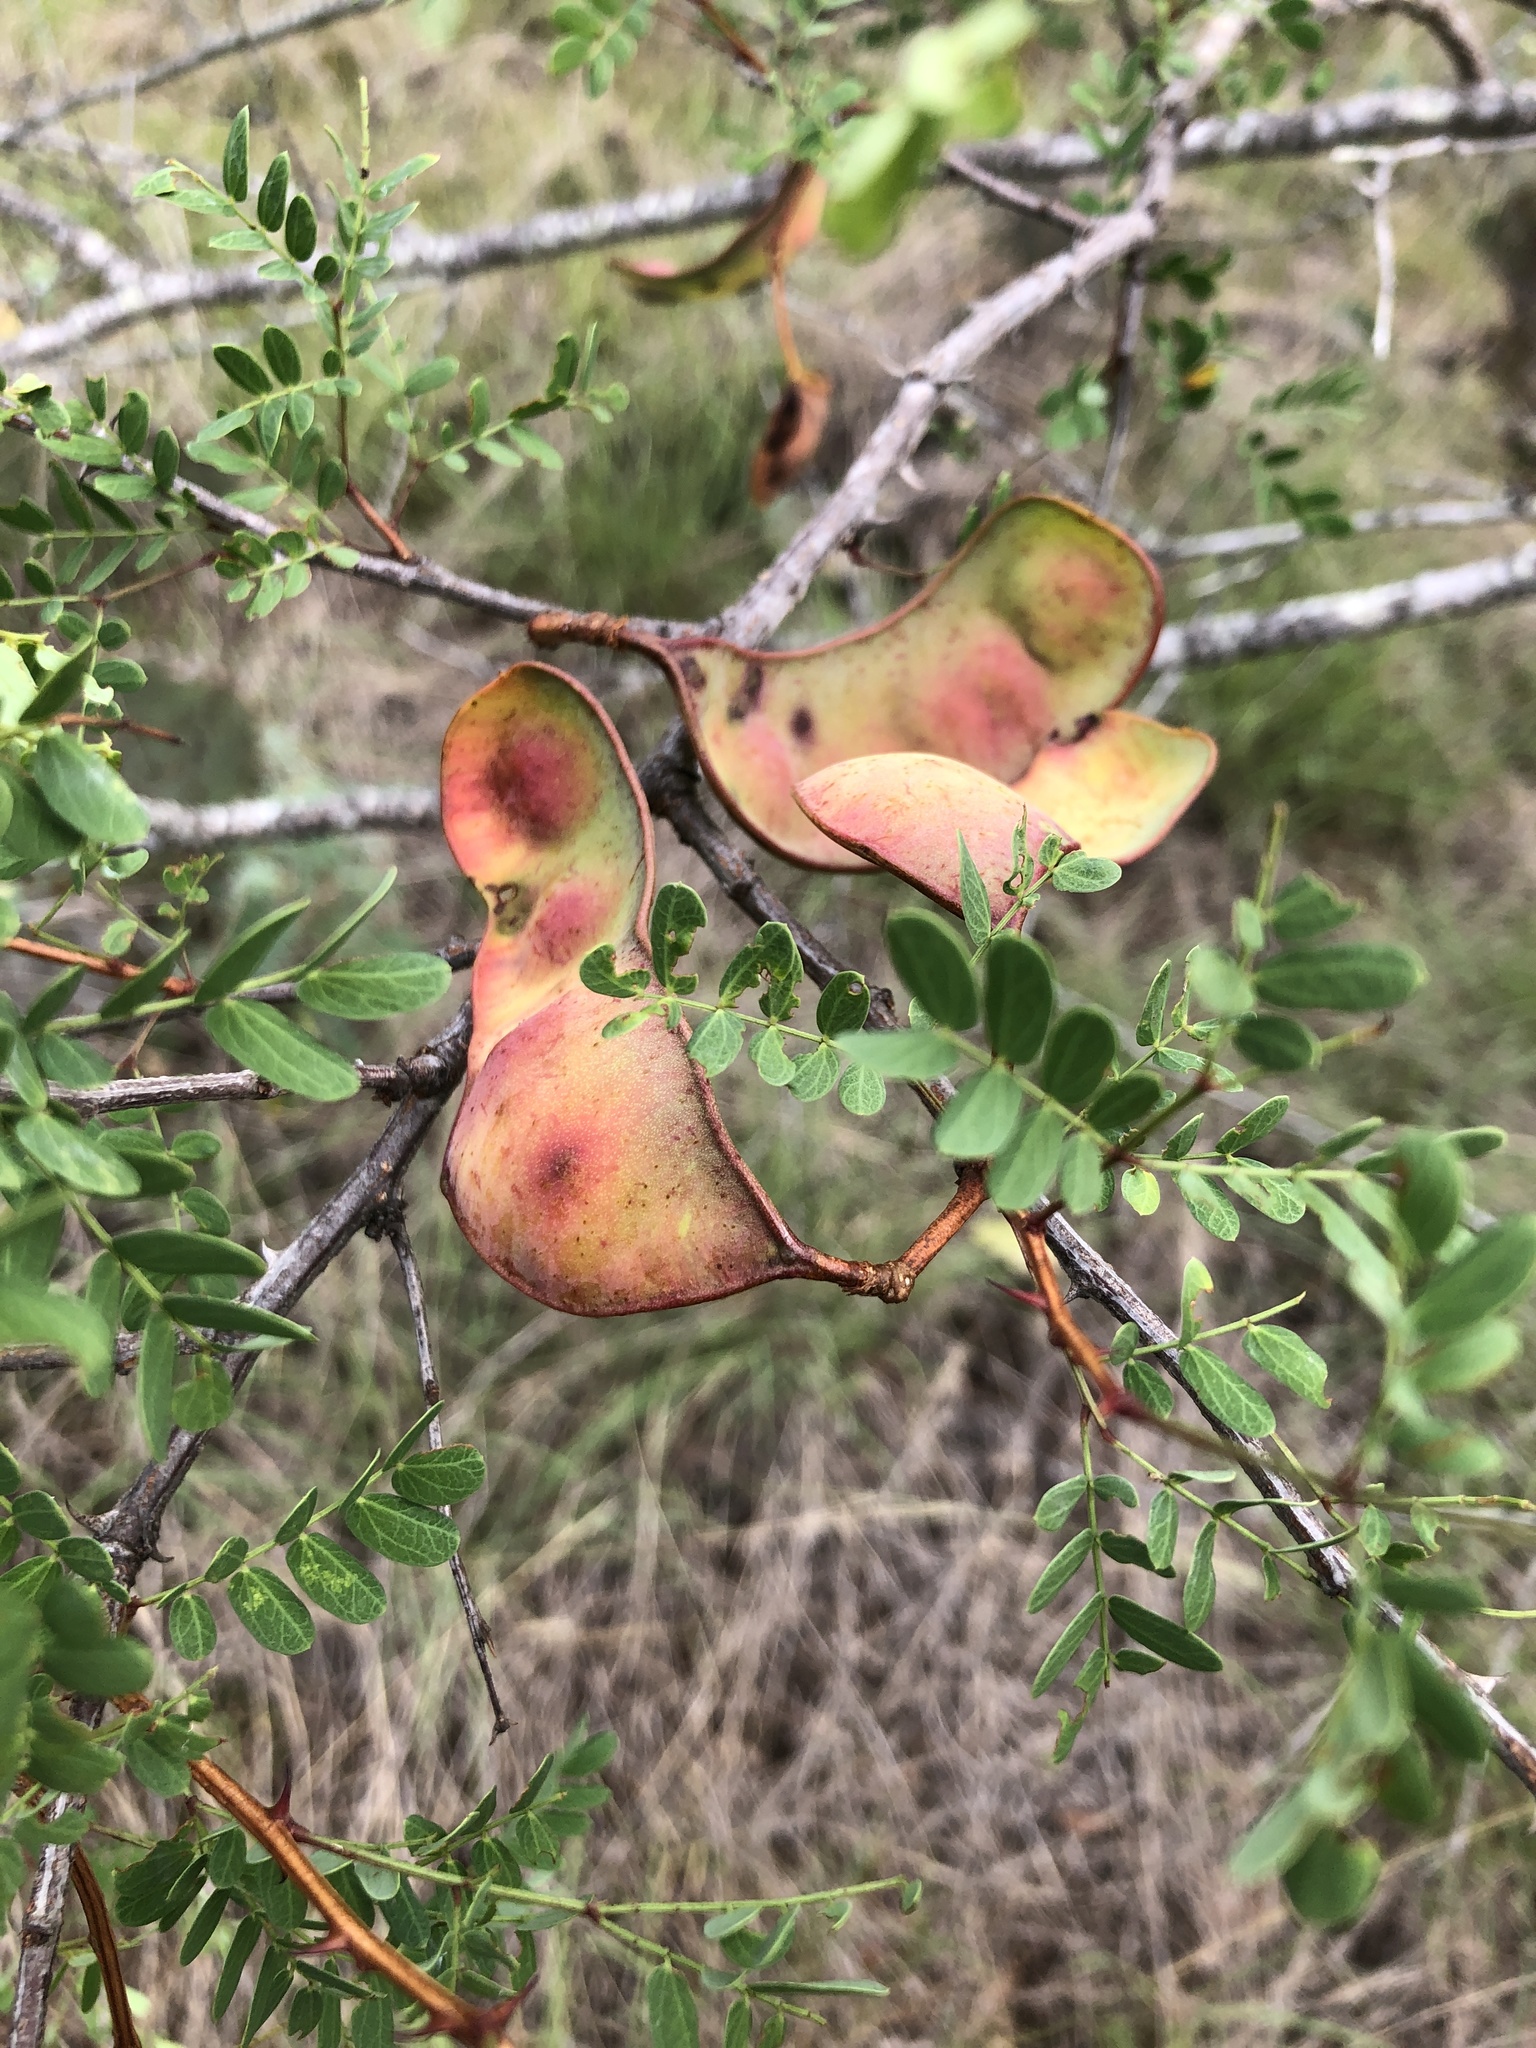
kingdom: Plantae
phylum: Tracheophyta
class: Magnoliopsida
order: Fabales
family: Fabaceae
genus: Senegalia
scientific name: Senegalia roemeriana
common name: Roemer's acacia
